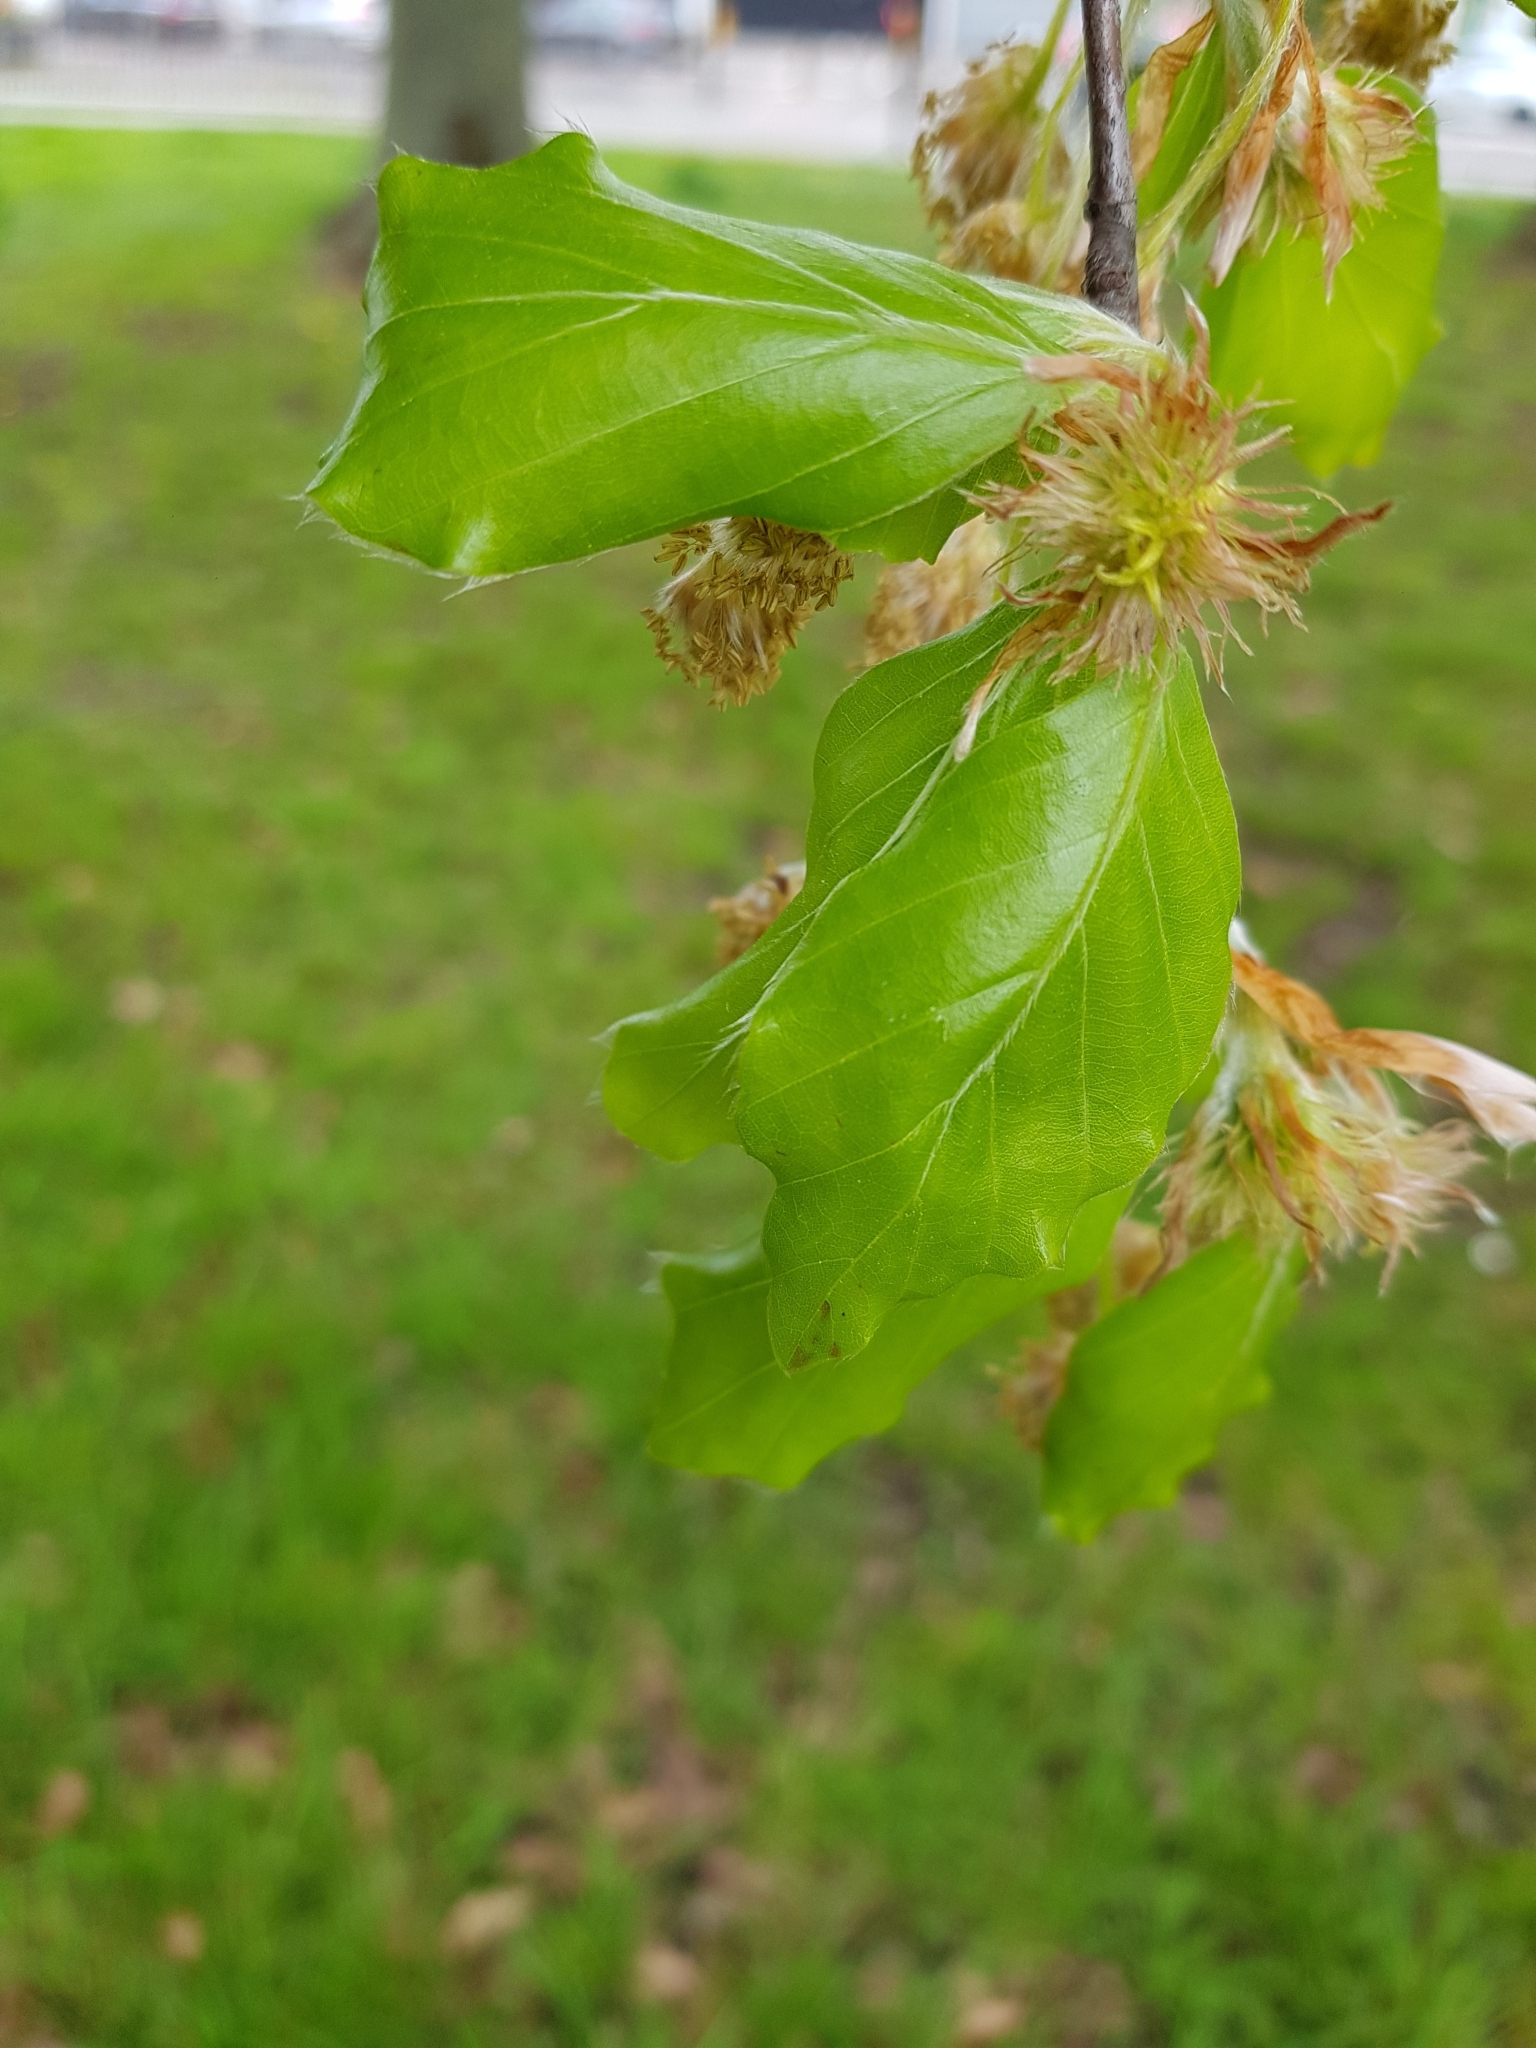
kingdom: Plantae
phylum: Tracheophyta
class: Magnoliopsida
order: Fagales
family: Fagaceae
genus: Fagus
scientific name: Fagus sylvatica
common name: Beech
